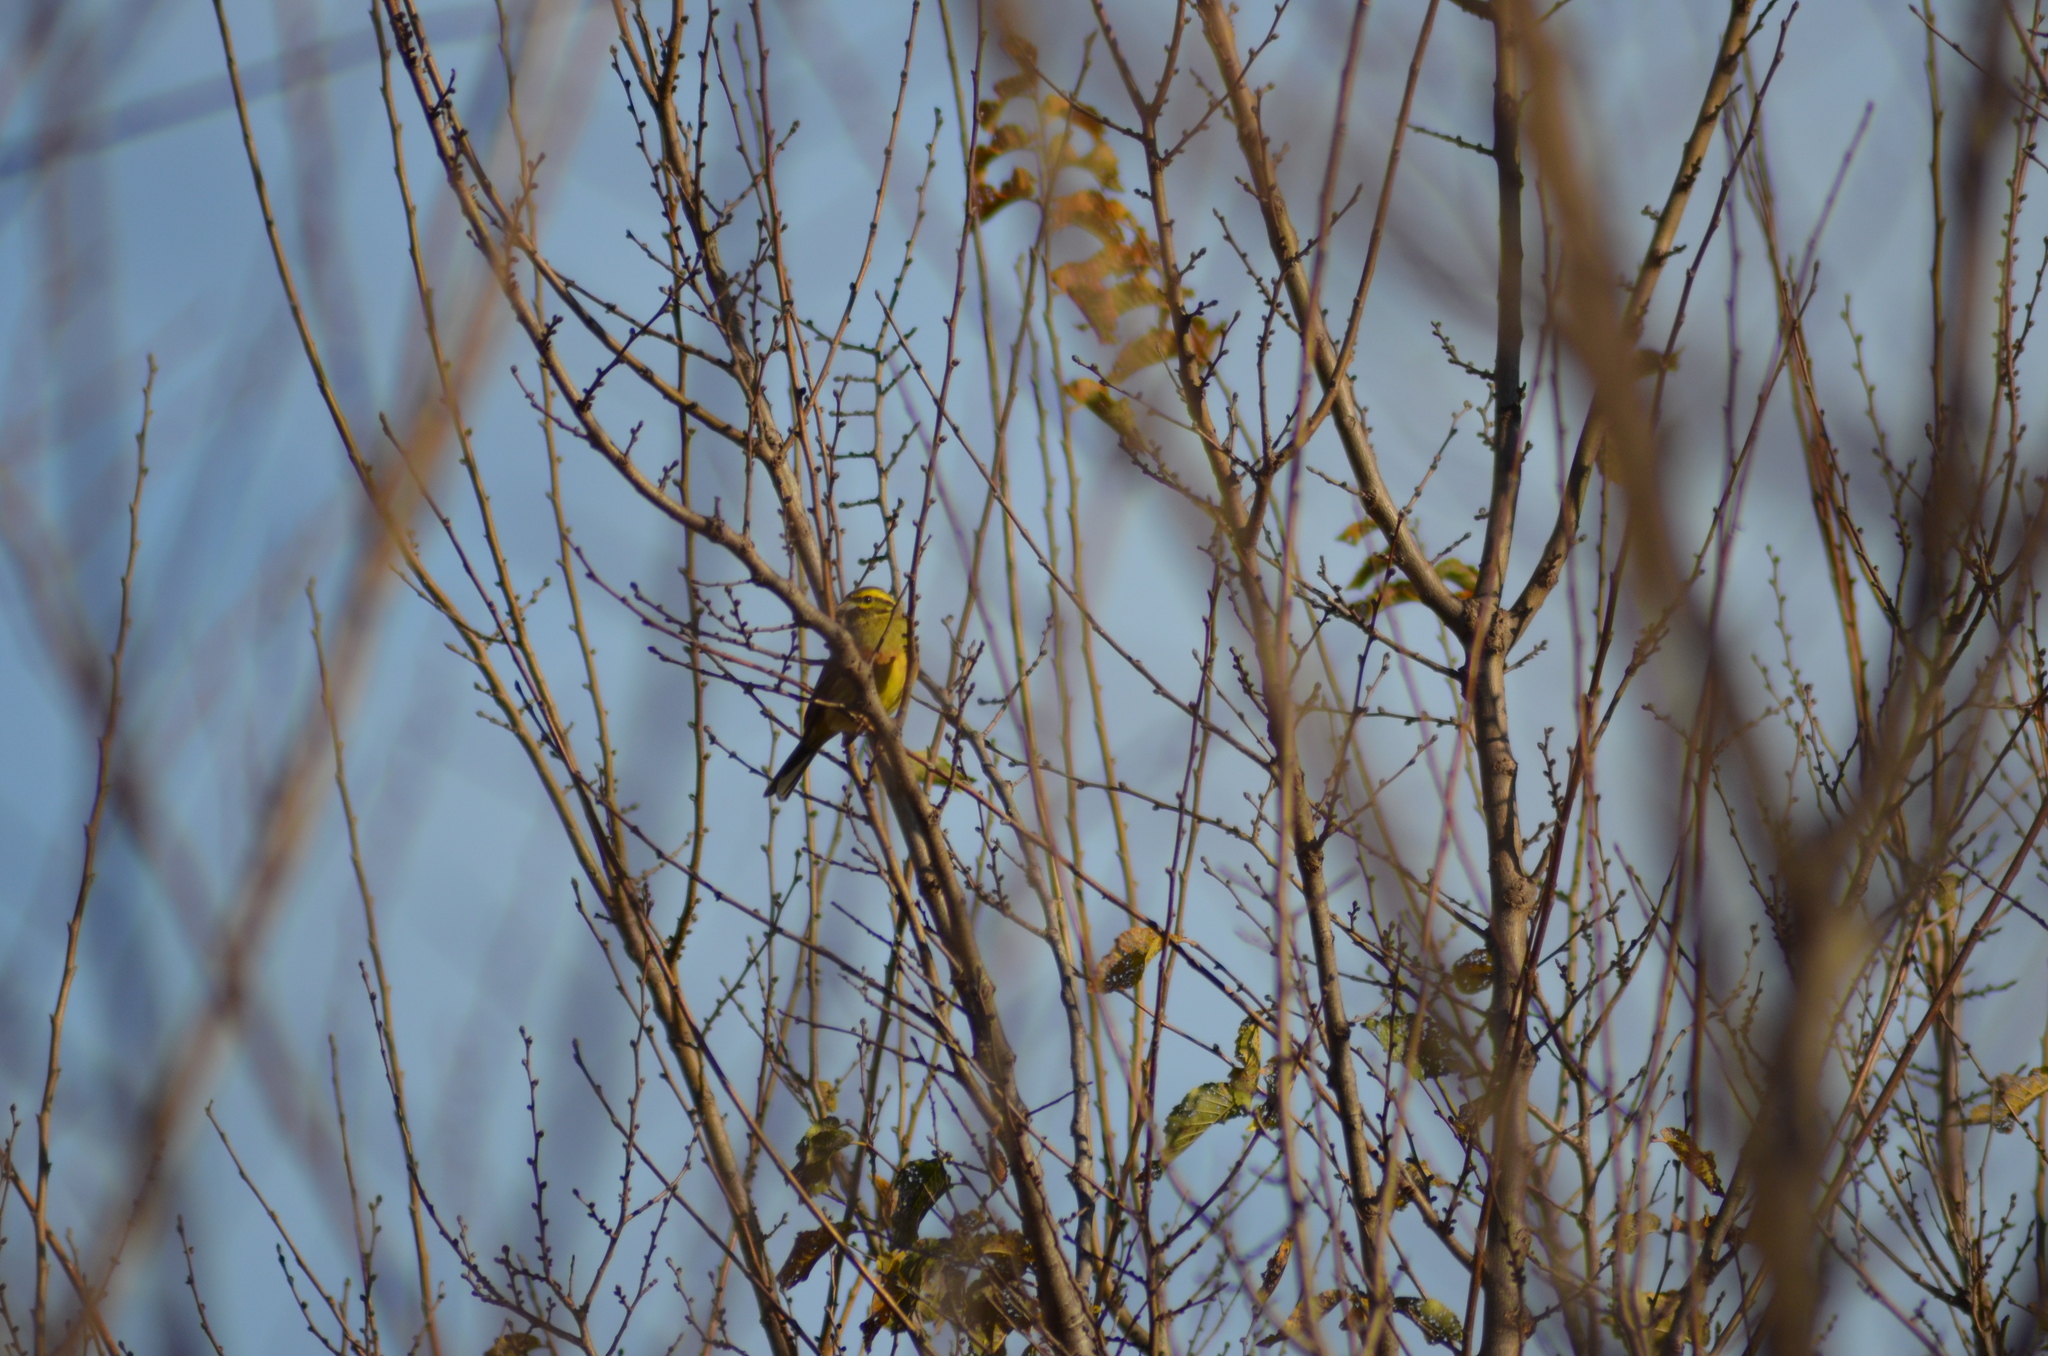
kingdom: Animalia
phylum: Chordata
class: Aves
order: Passeriformes
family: Emberizidae
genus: Emberiza
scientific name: Emberiza cirlus
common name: Cirl bunting
